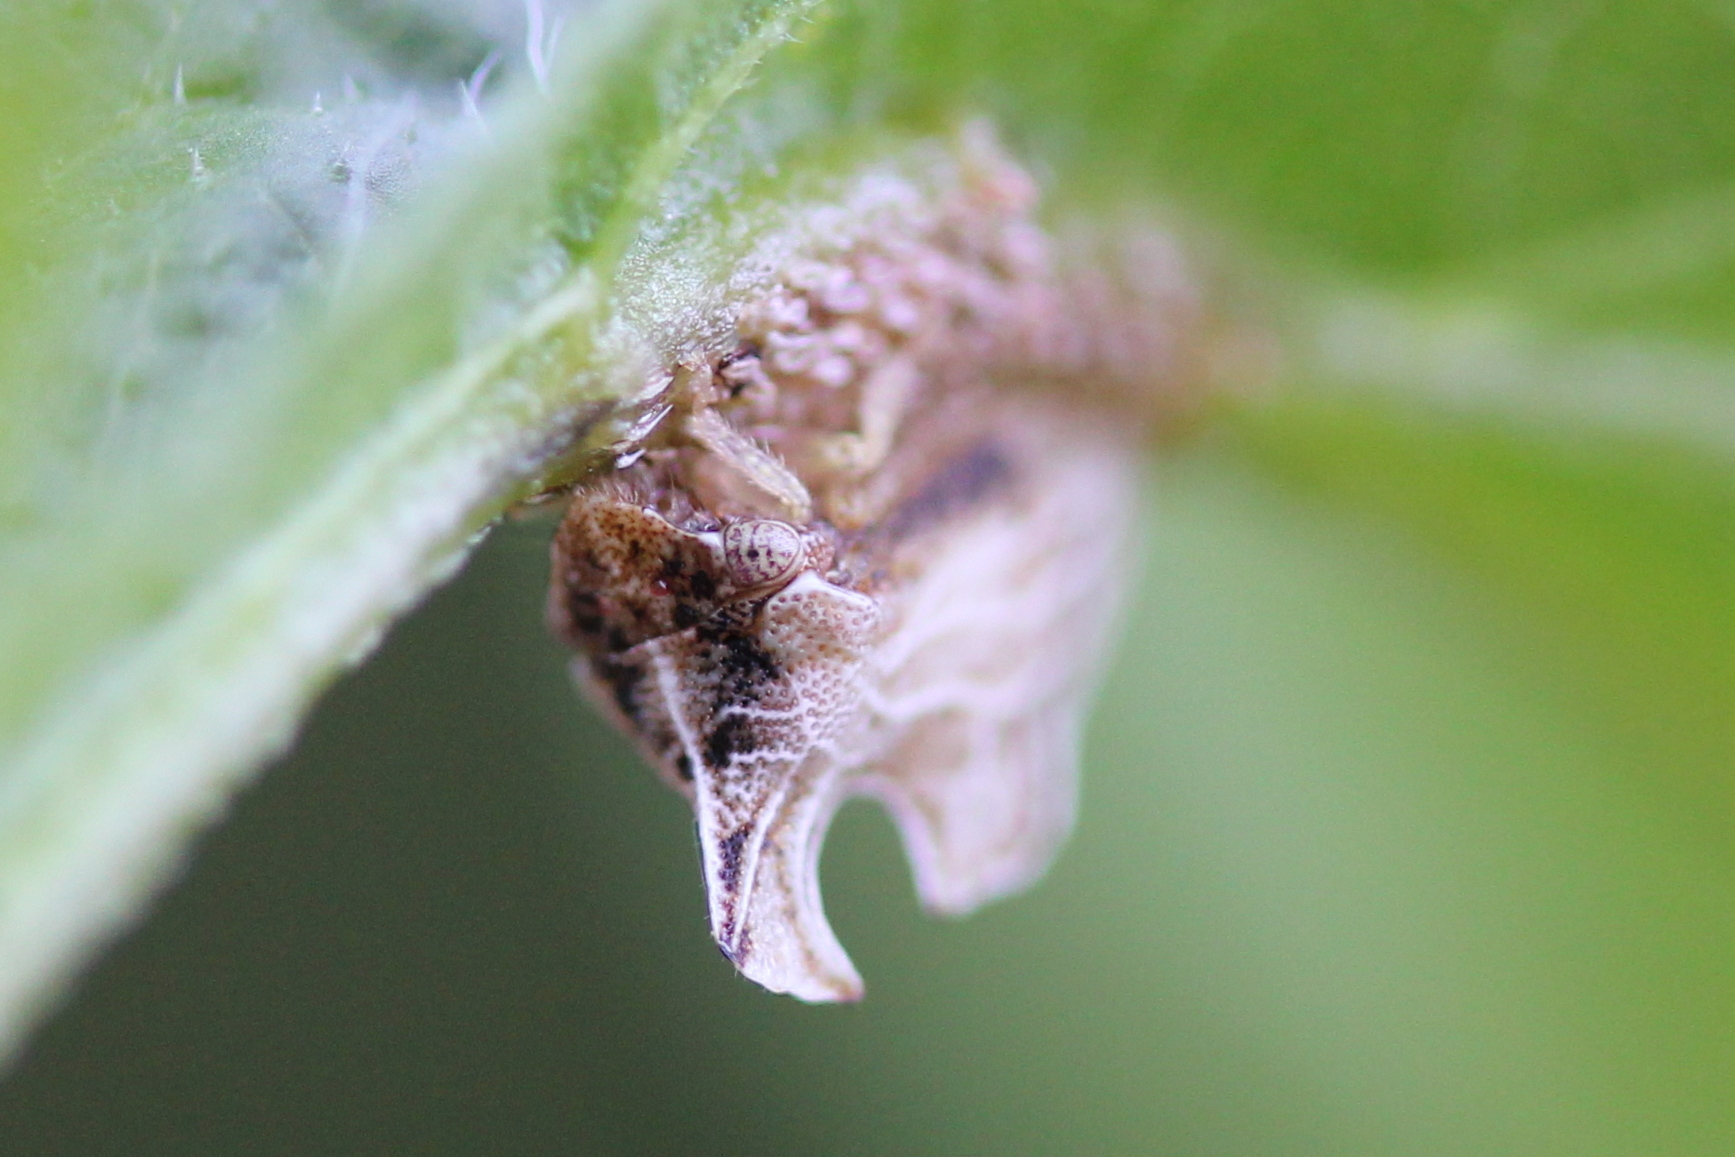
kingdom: Animalia
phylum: Arthropoda
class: Insecta
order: Hemiptera
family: Membracidae
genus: Entylia
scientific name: Entylia carinata
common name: Keeled treehopper
